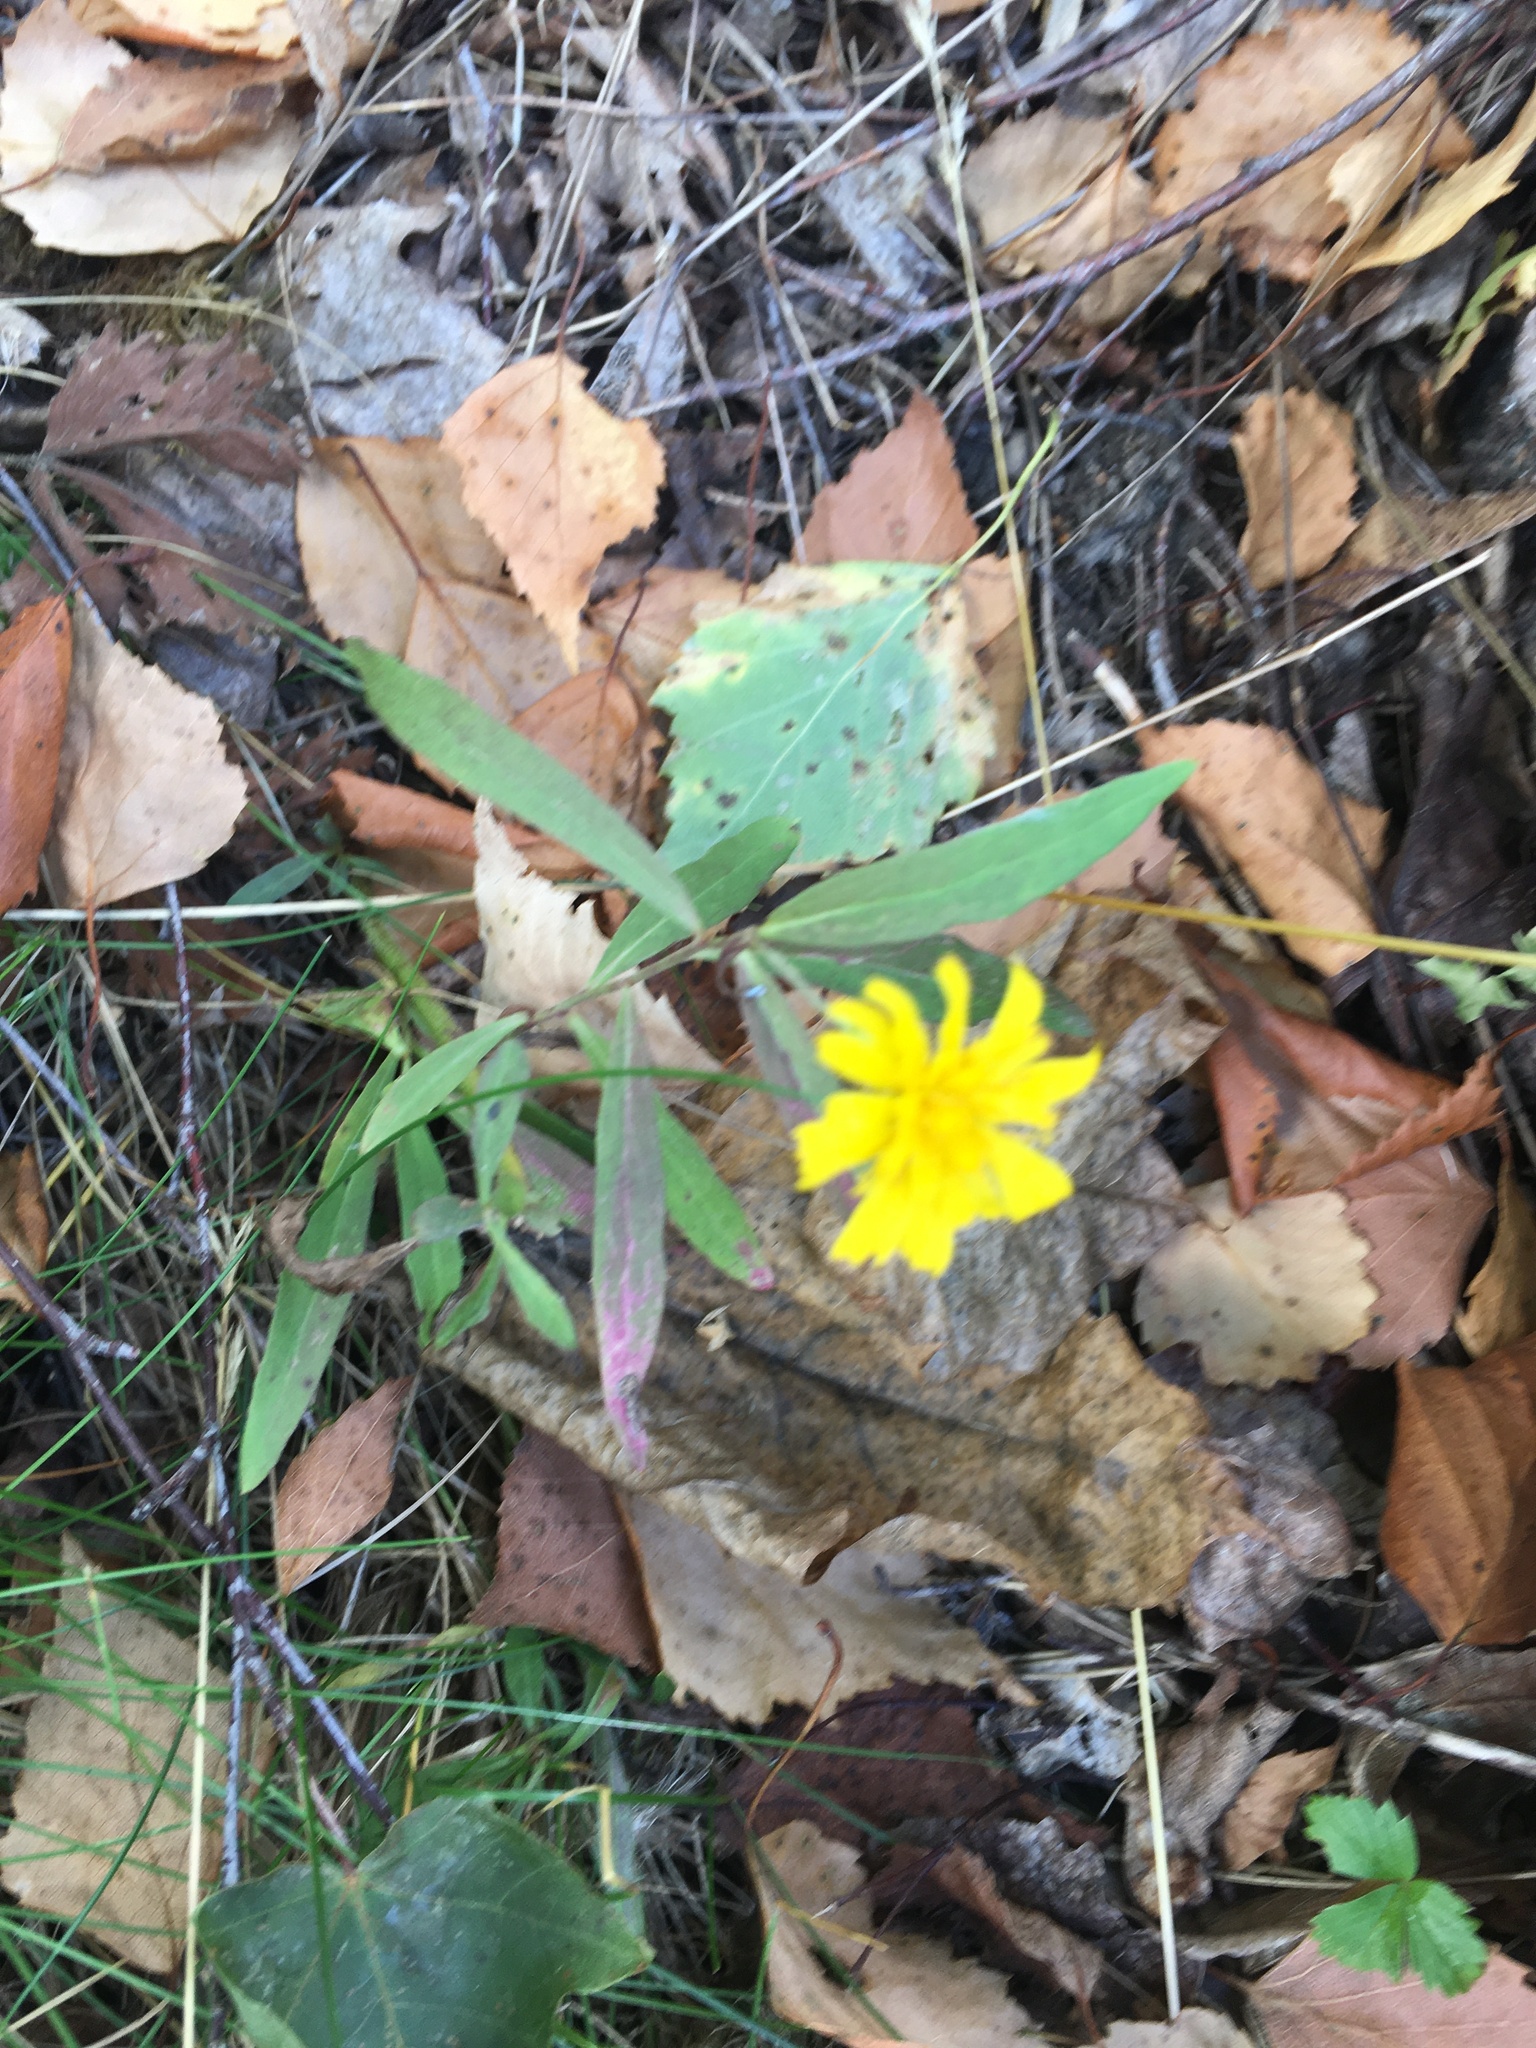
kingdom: Plantae
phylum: Tracheophyta
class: Magnoliopsida
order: Asterales
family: Asteraceae
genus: Hieracium
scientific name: Hieracium umbellatum
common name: Northern hawkweed
